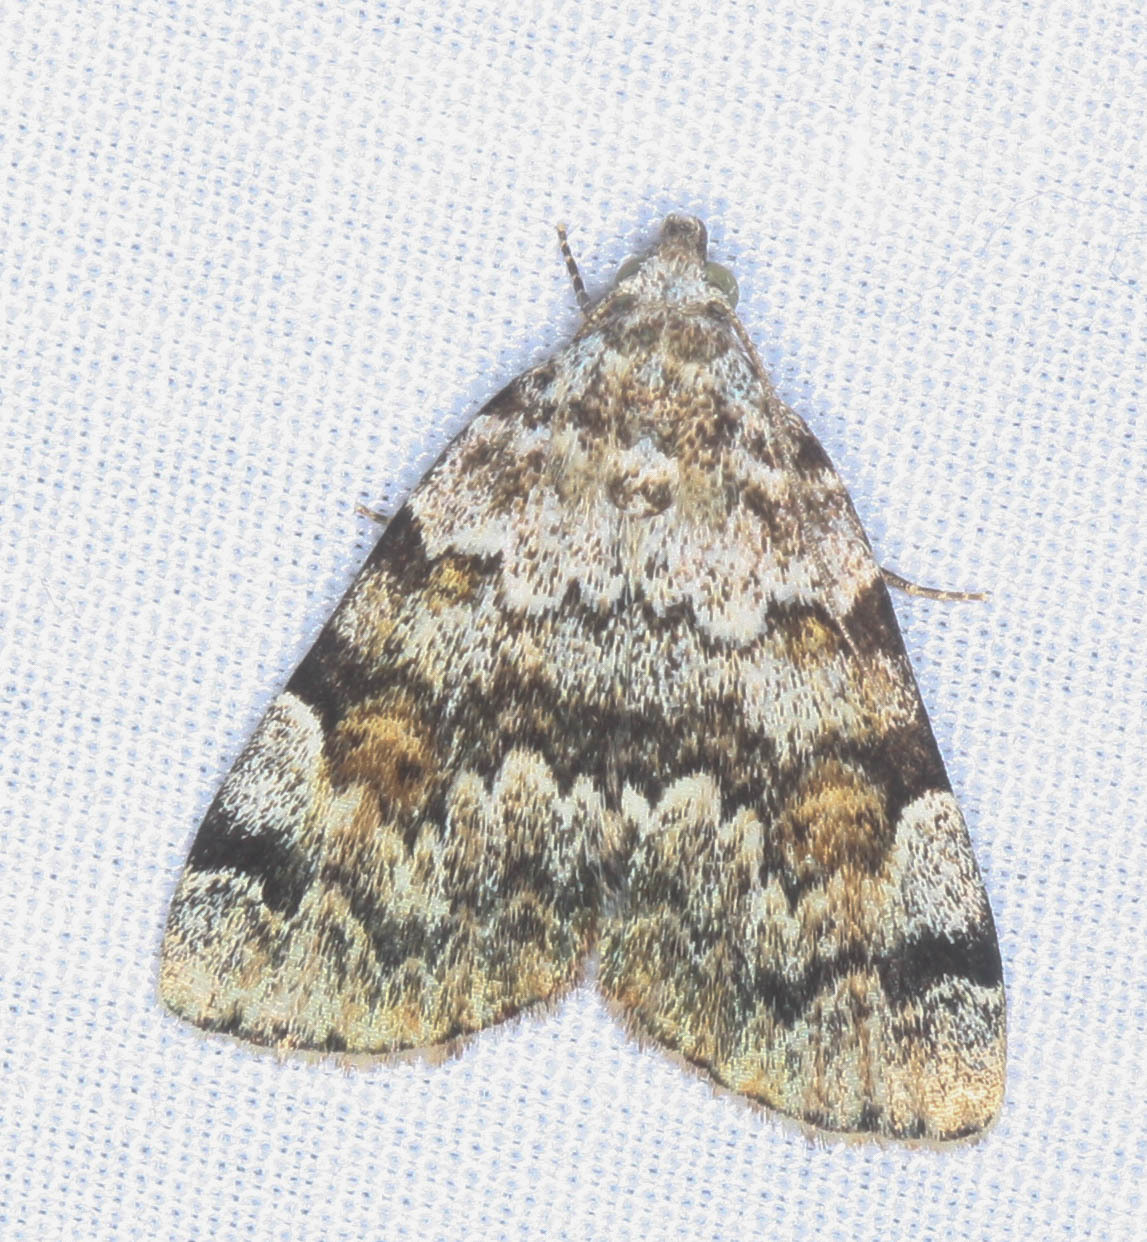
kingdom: Animalia
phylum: Arthropoda
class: Insecta
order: Lepidoptera
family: Erebidae
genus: Idia
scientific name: Idia americalis
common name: American idia moth
